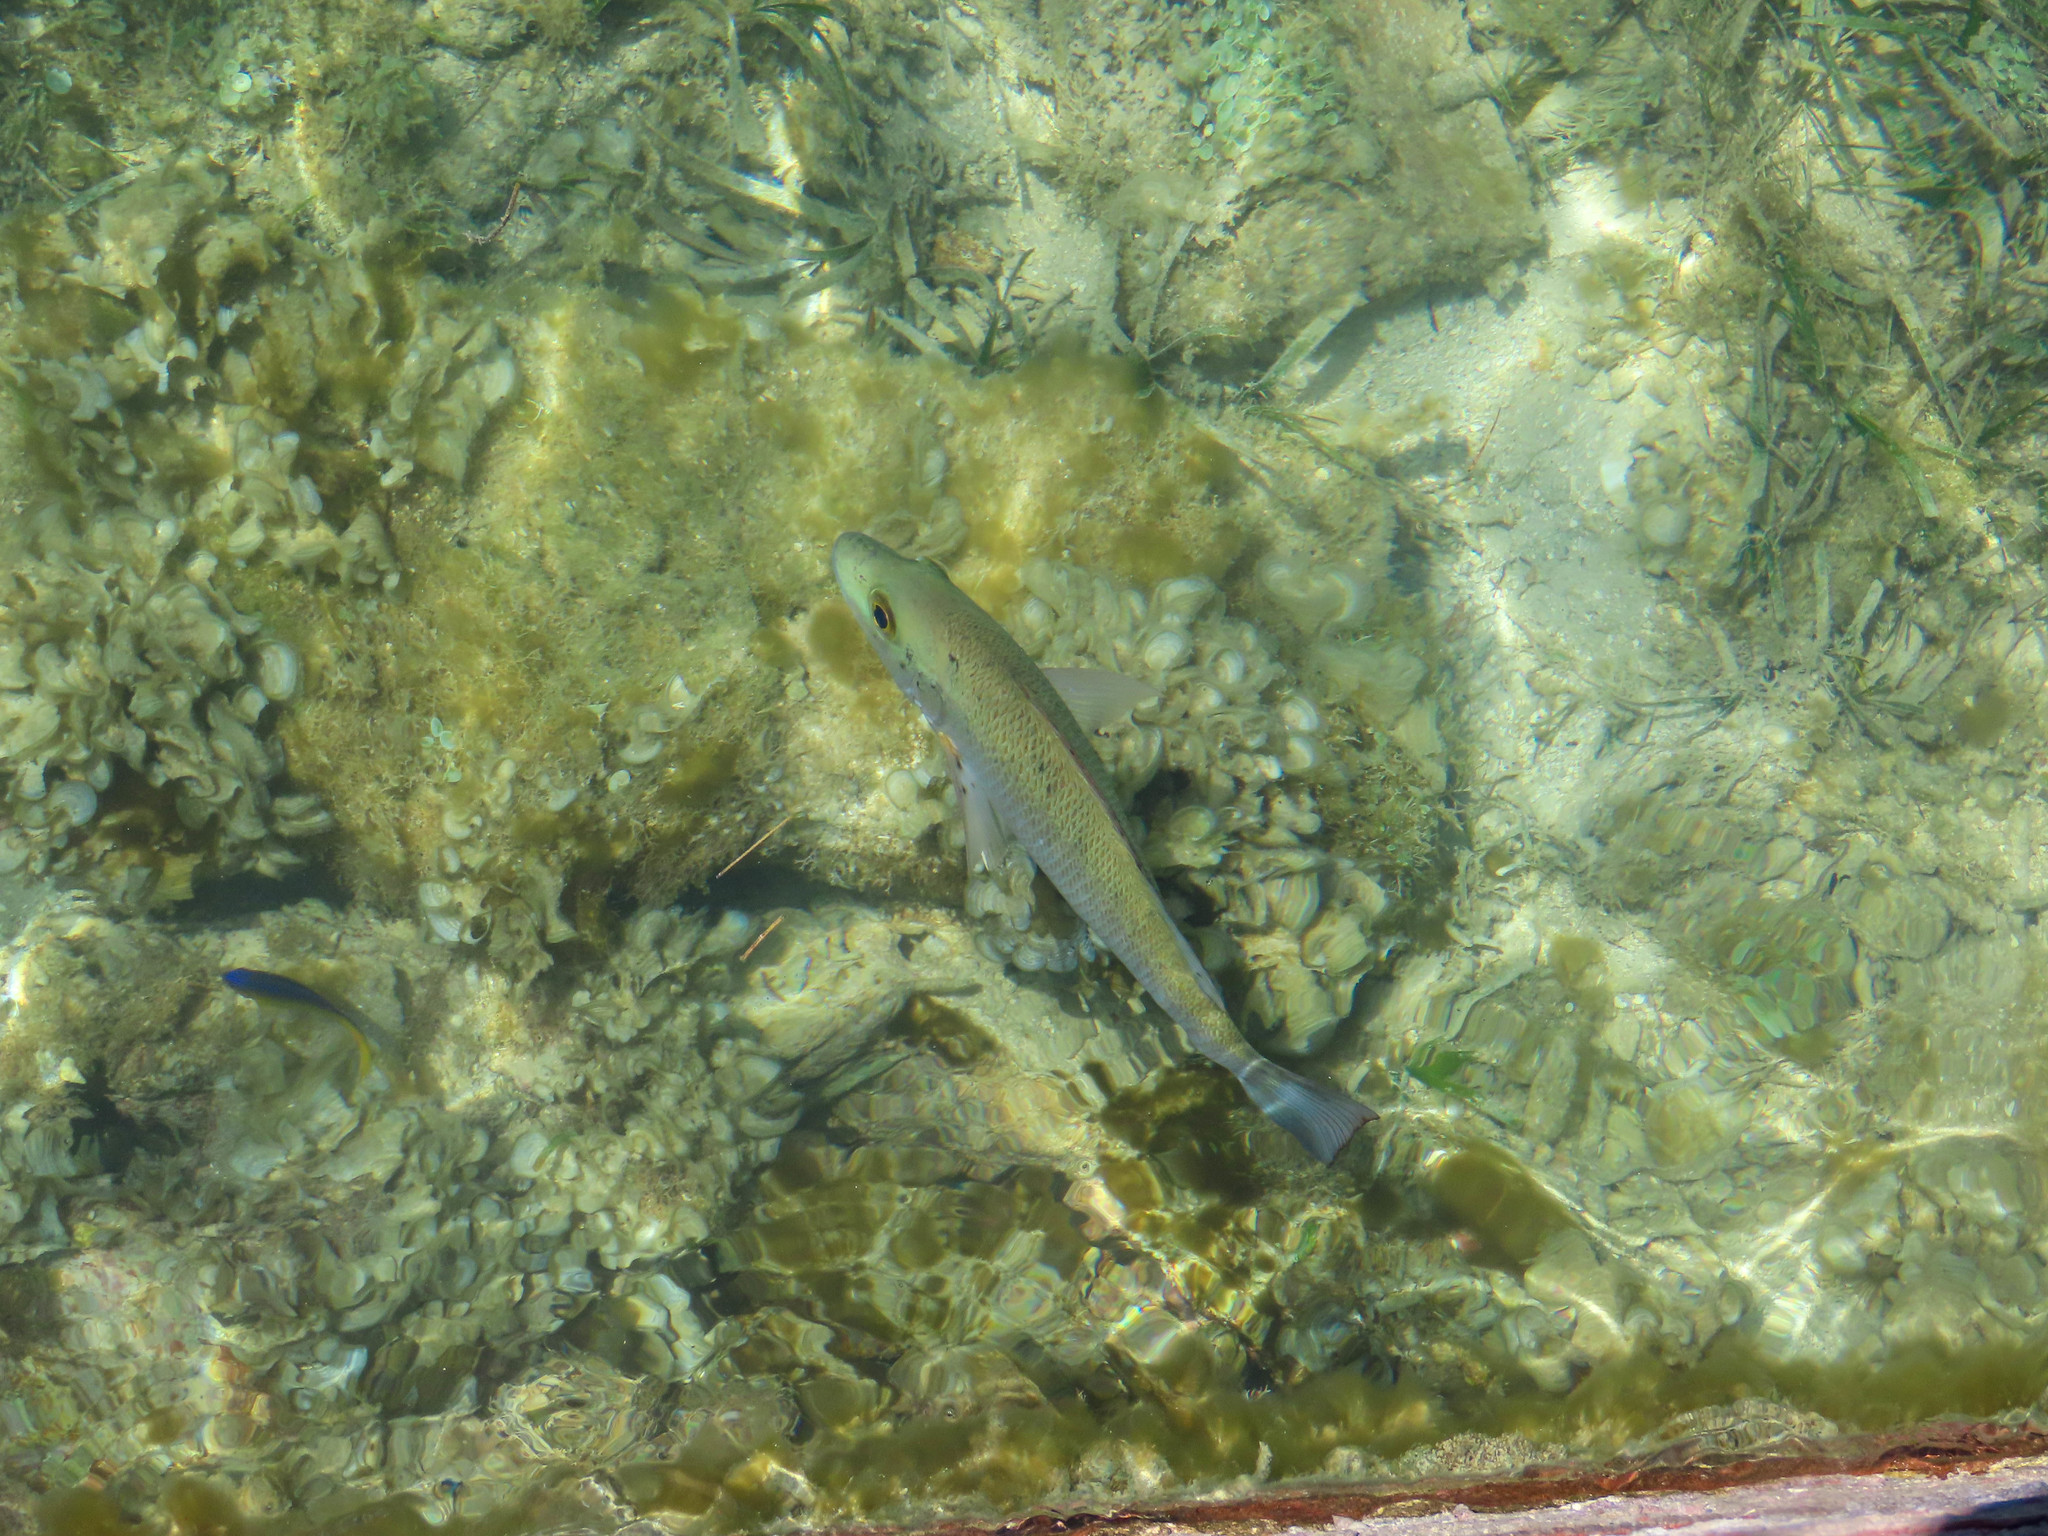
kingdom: Animalia
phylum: Chordata
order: Perciformes
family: Lutjanidae
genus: Lutjanus
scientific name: Lutjanus griseus
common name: Gray snapper
